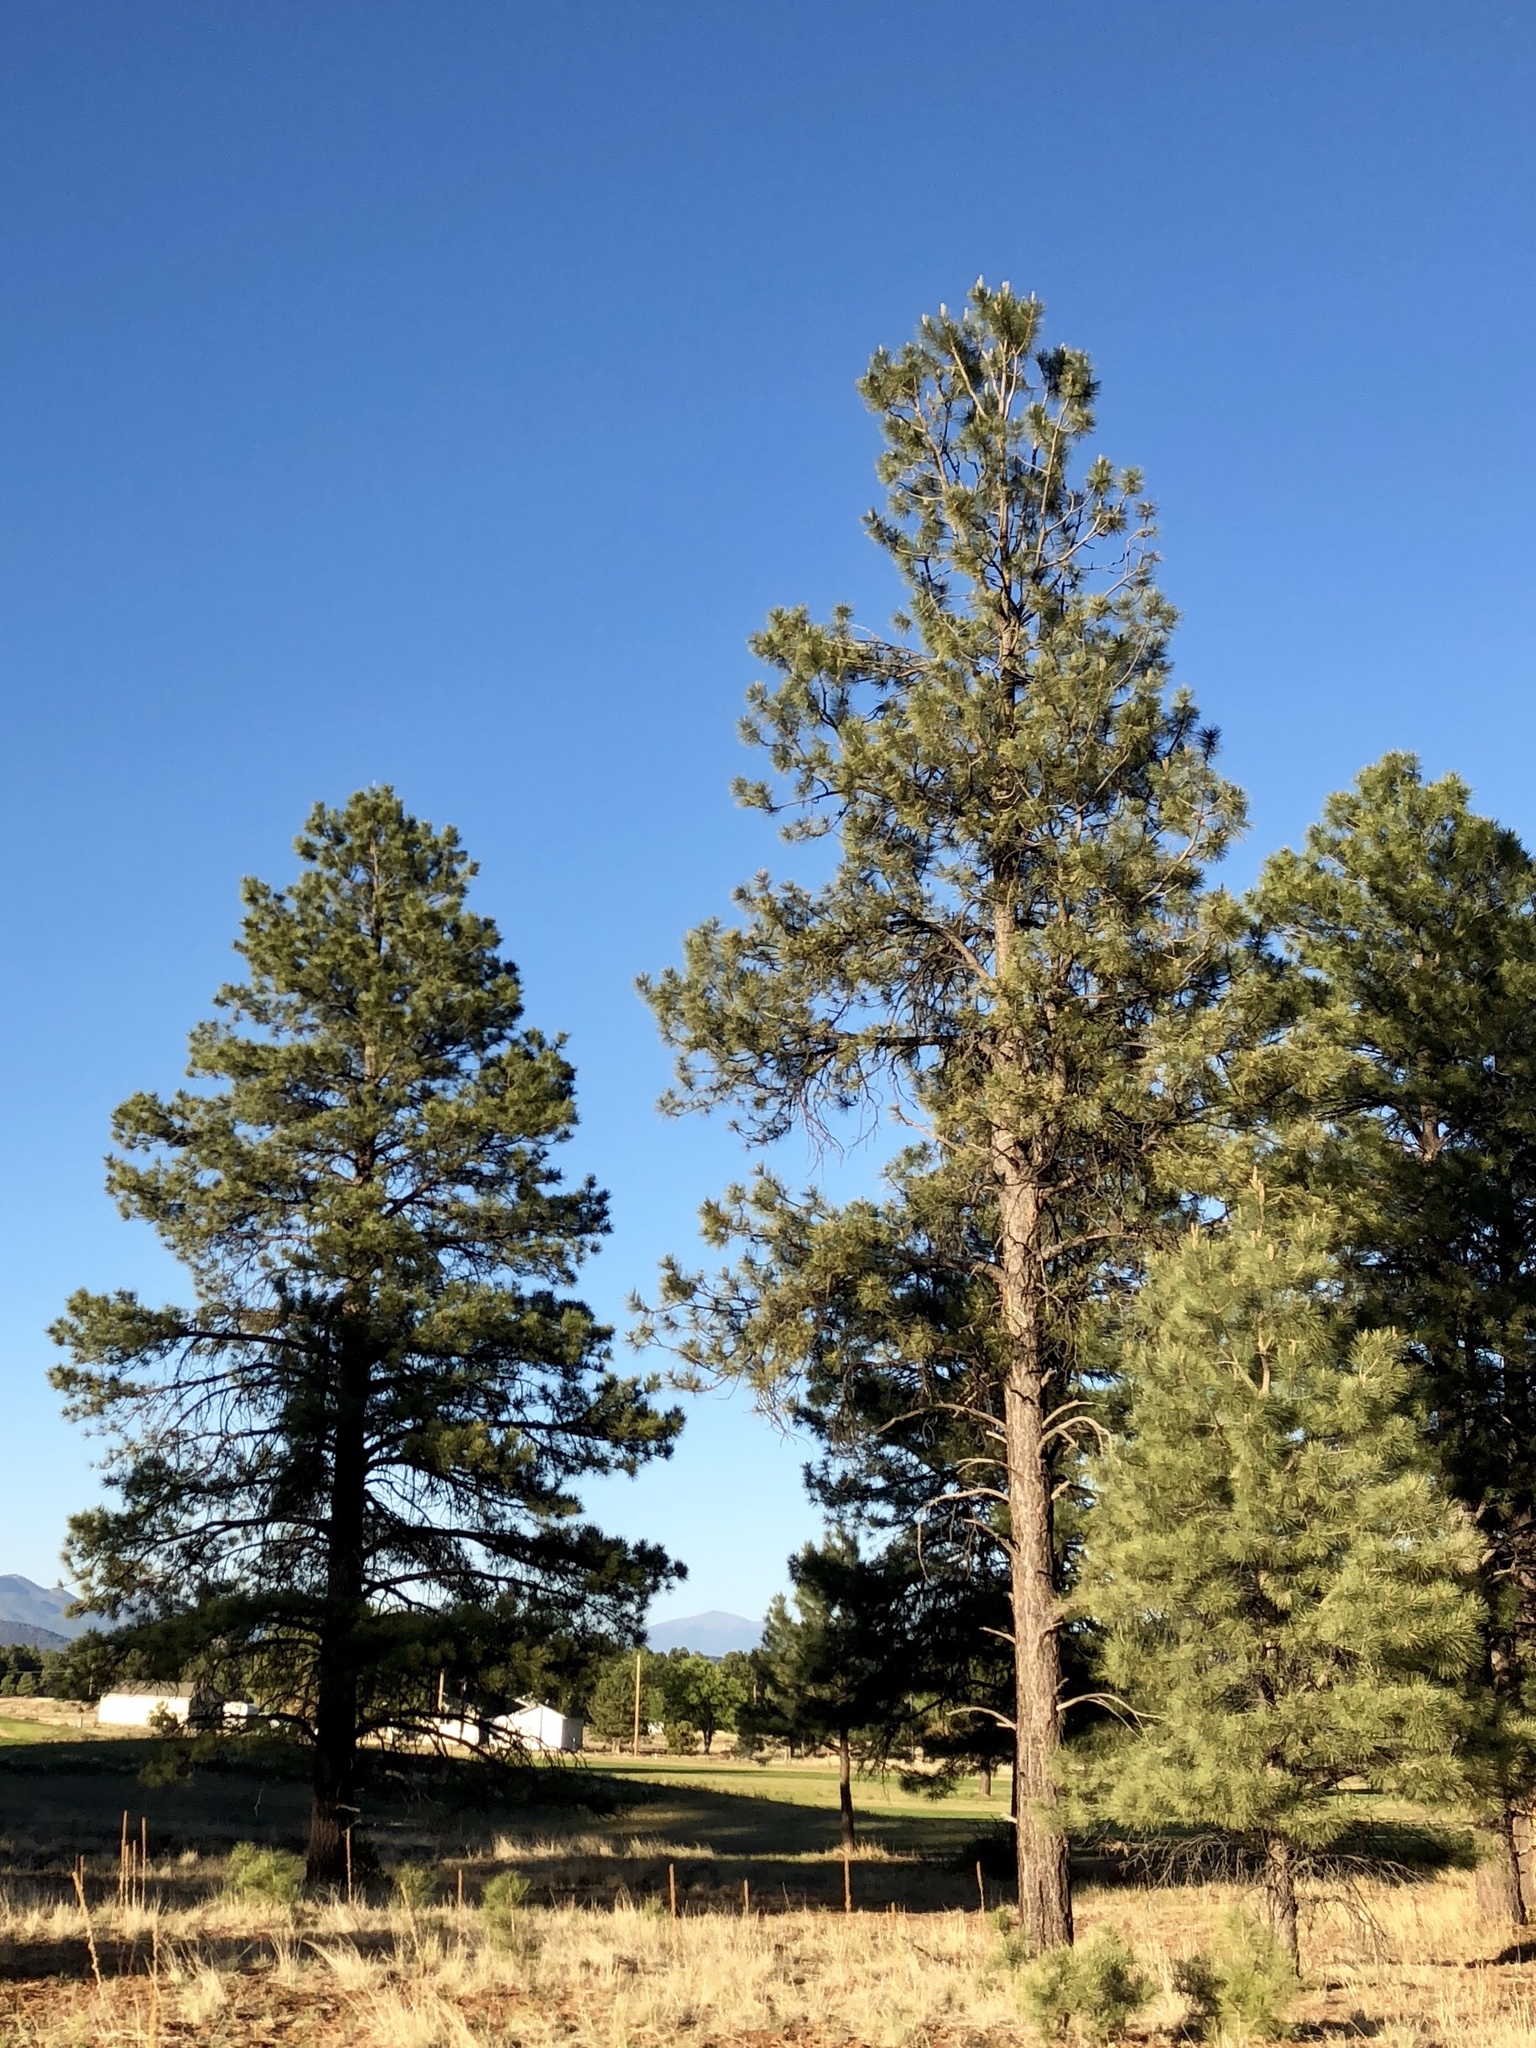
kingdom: Plantae
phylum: Tracheophyta
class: Pinopsida
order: Pinales
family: Pinaceae
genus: Pinus
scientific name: Pinus ponderosa
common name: Western yellow-pine
